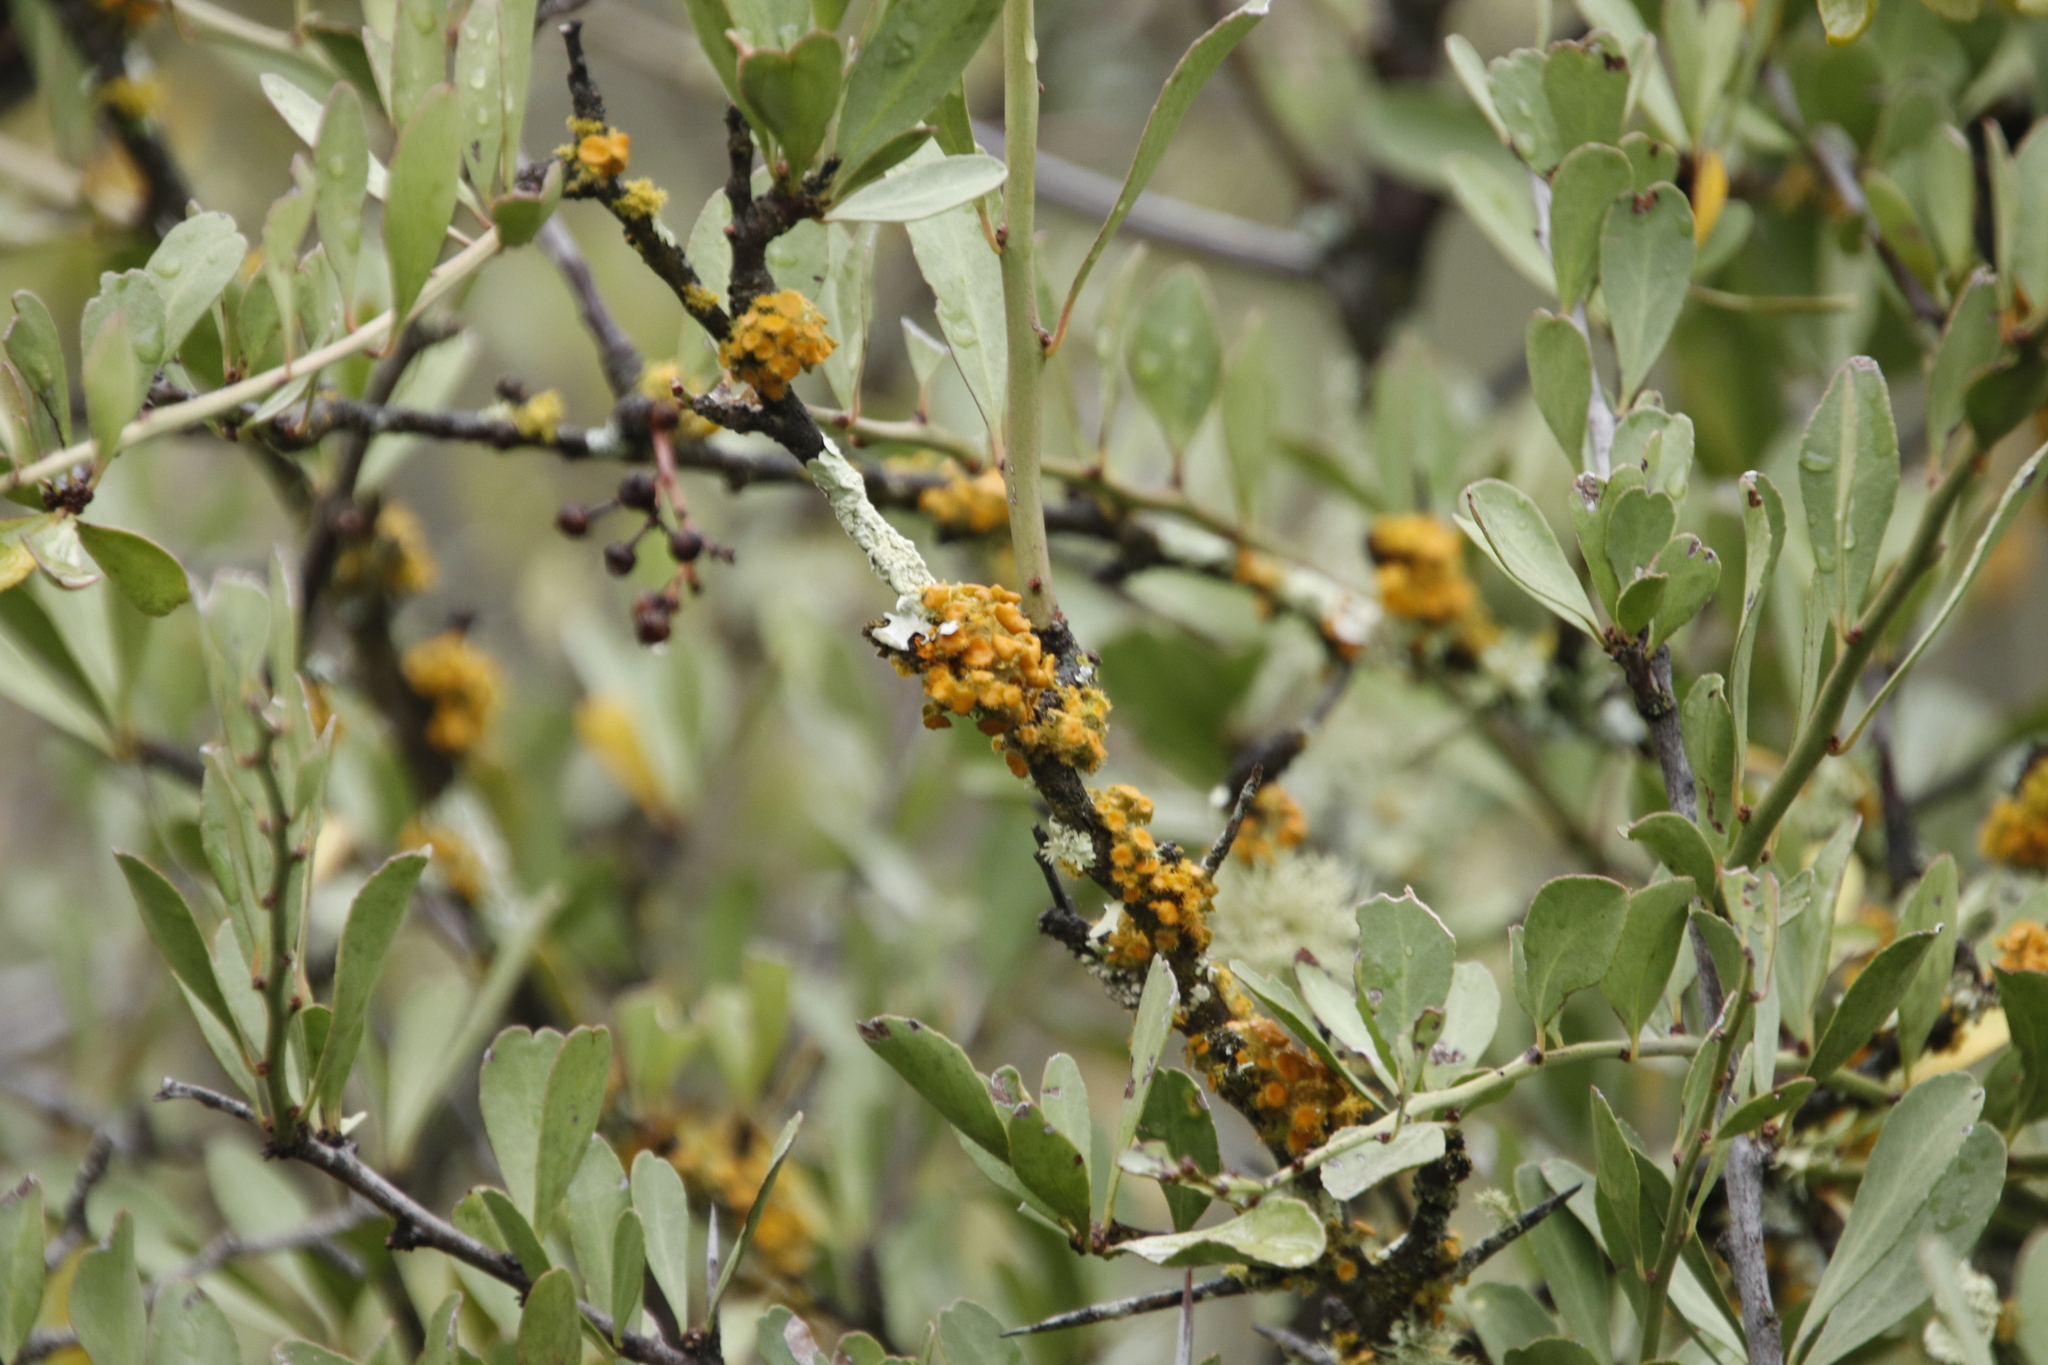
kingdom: Fungi
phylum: Ascomycota
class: Lecanoromycetes
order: Teloschistales
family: Teloschistaceae
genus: Niorma
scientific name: Niorma chrysophthalma
